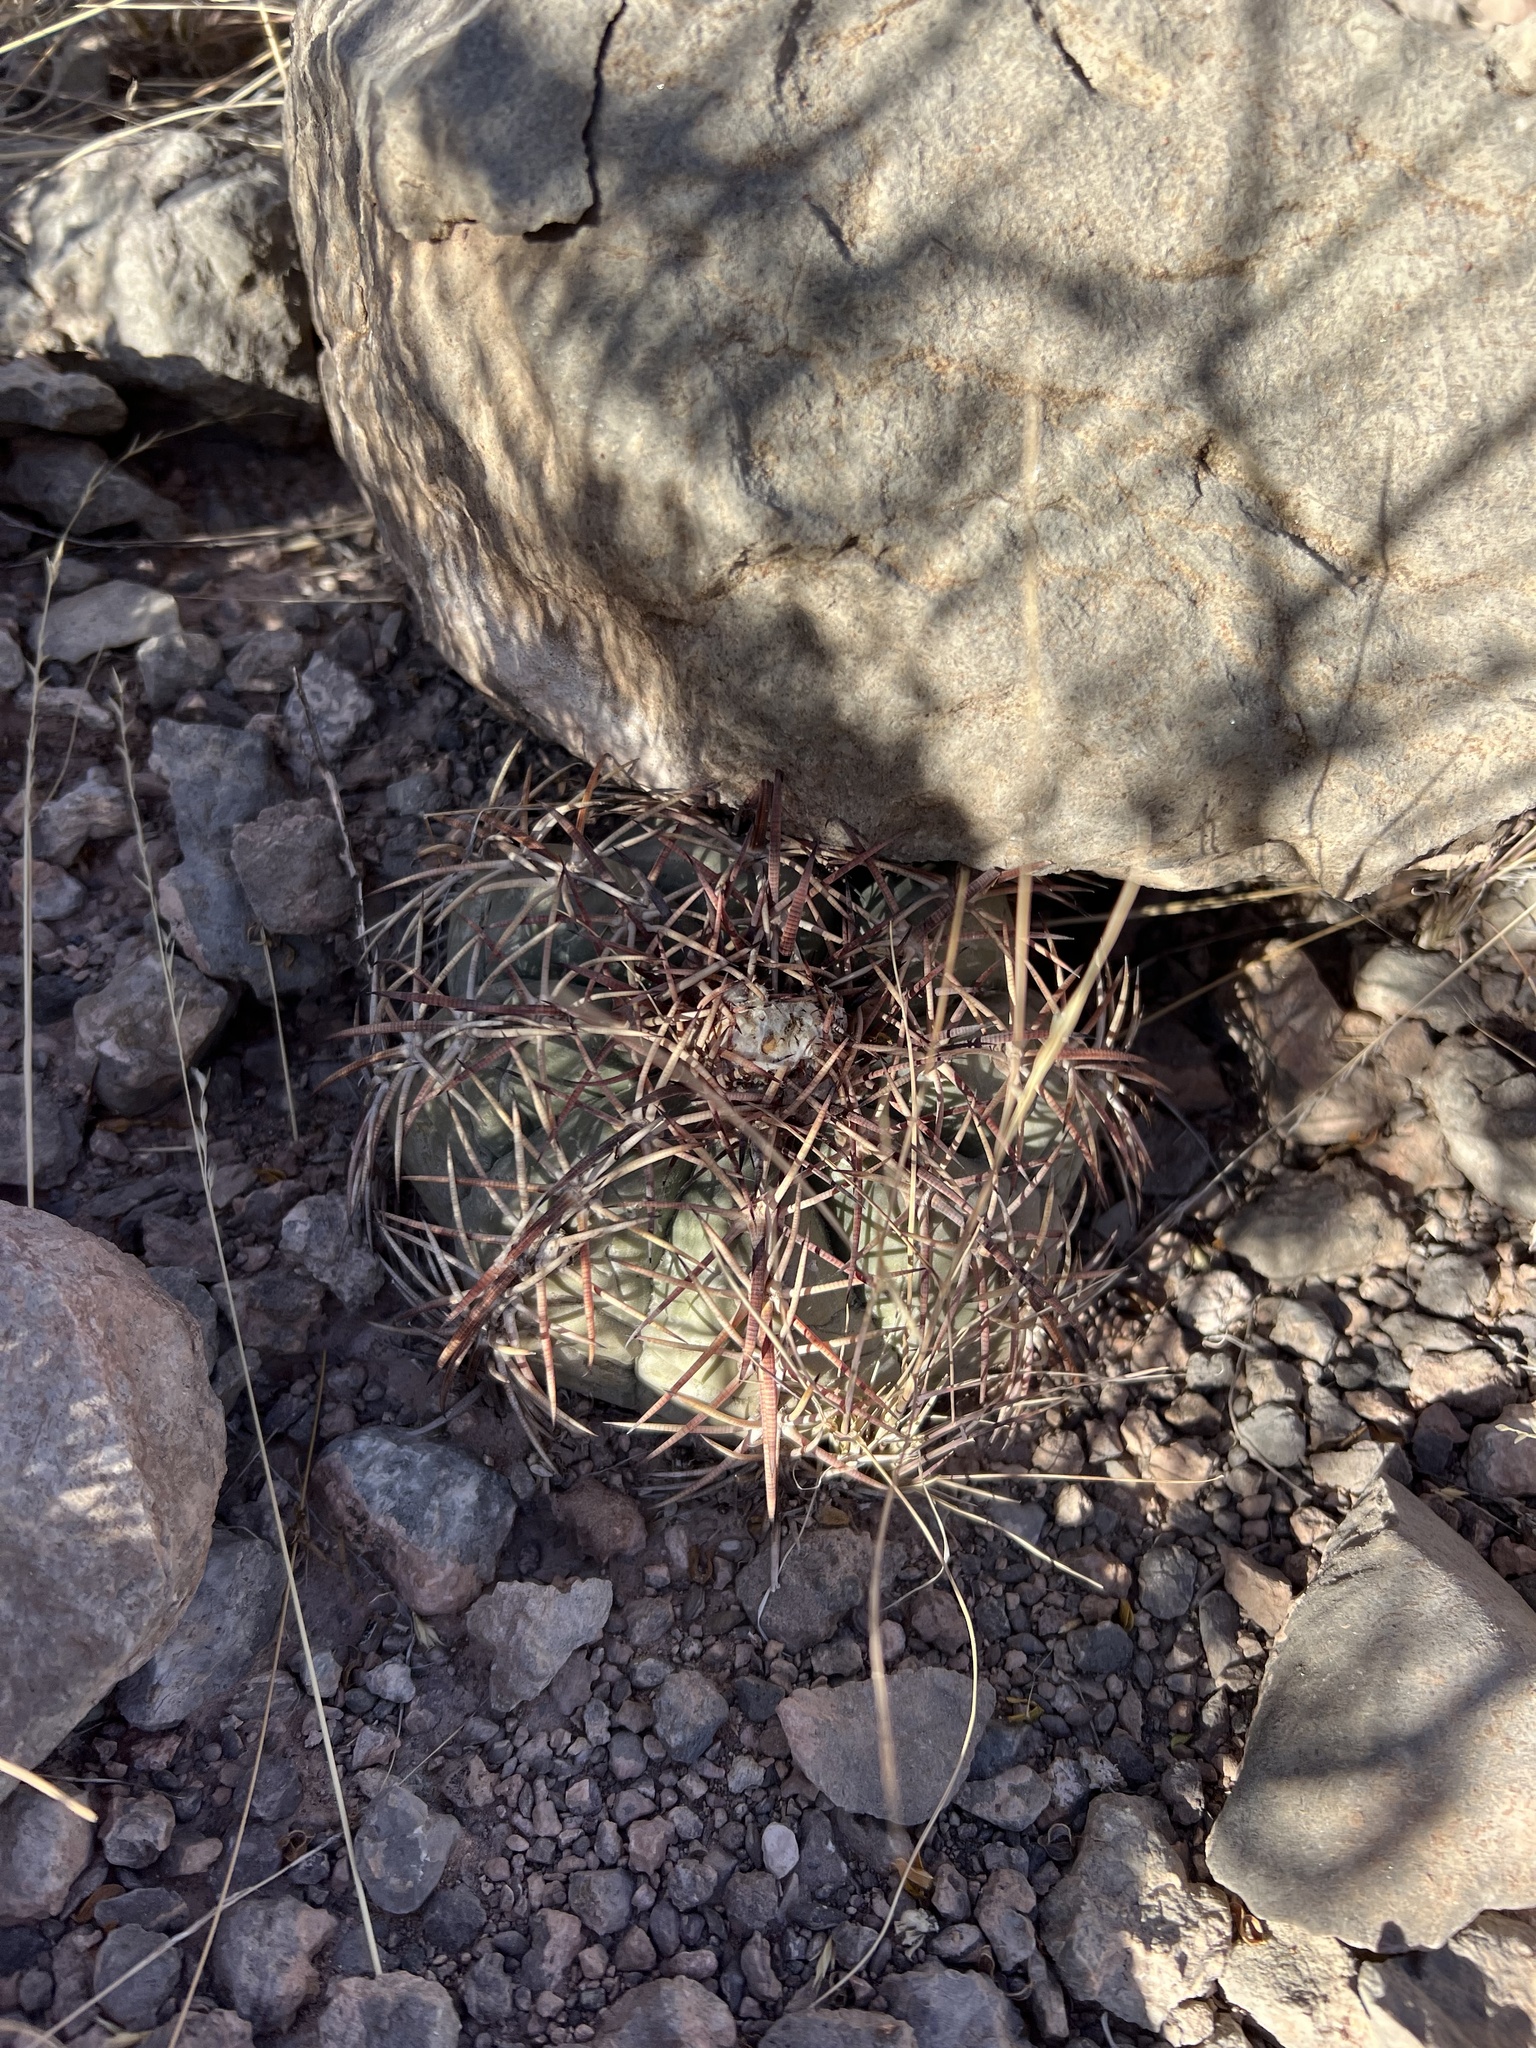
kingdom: Plantae
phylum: Tracheophyta
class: Magnoliopsida
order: Caryophyllales
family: Cactaceae
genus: Echinocactus
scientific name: Echinocactus horizonthalonius
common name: Devilshead
